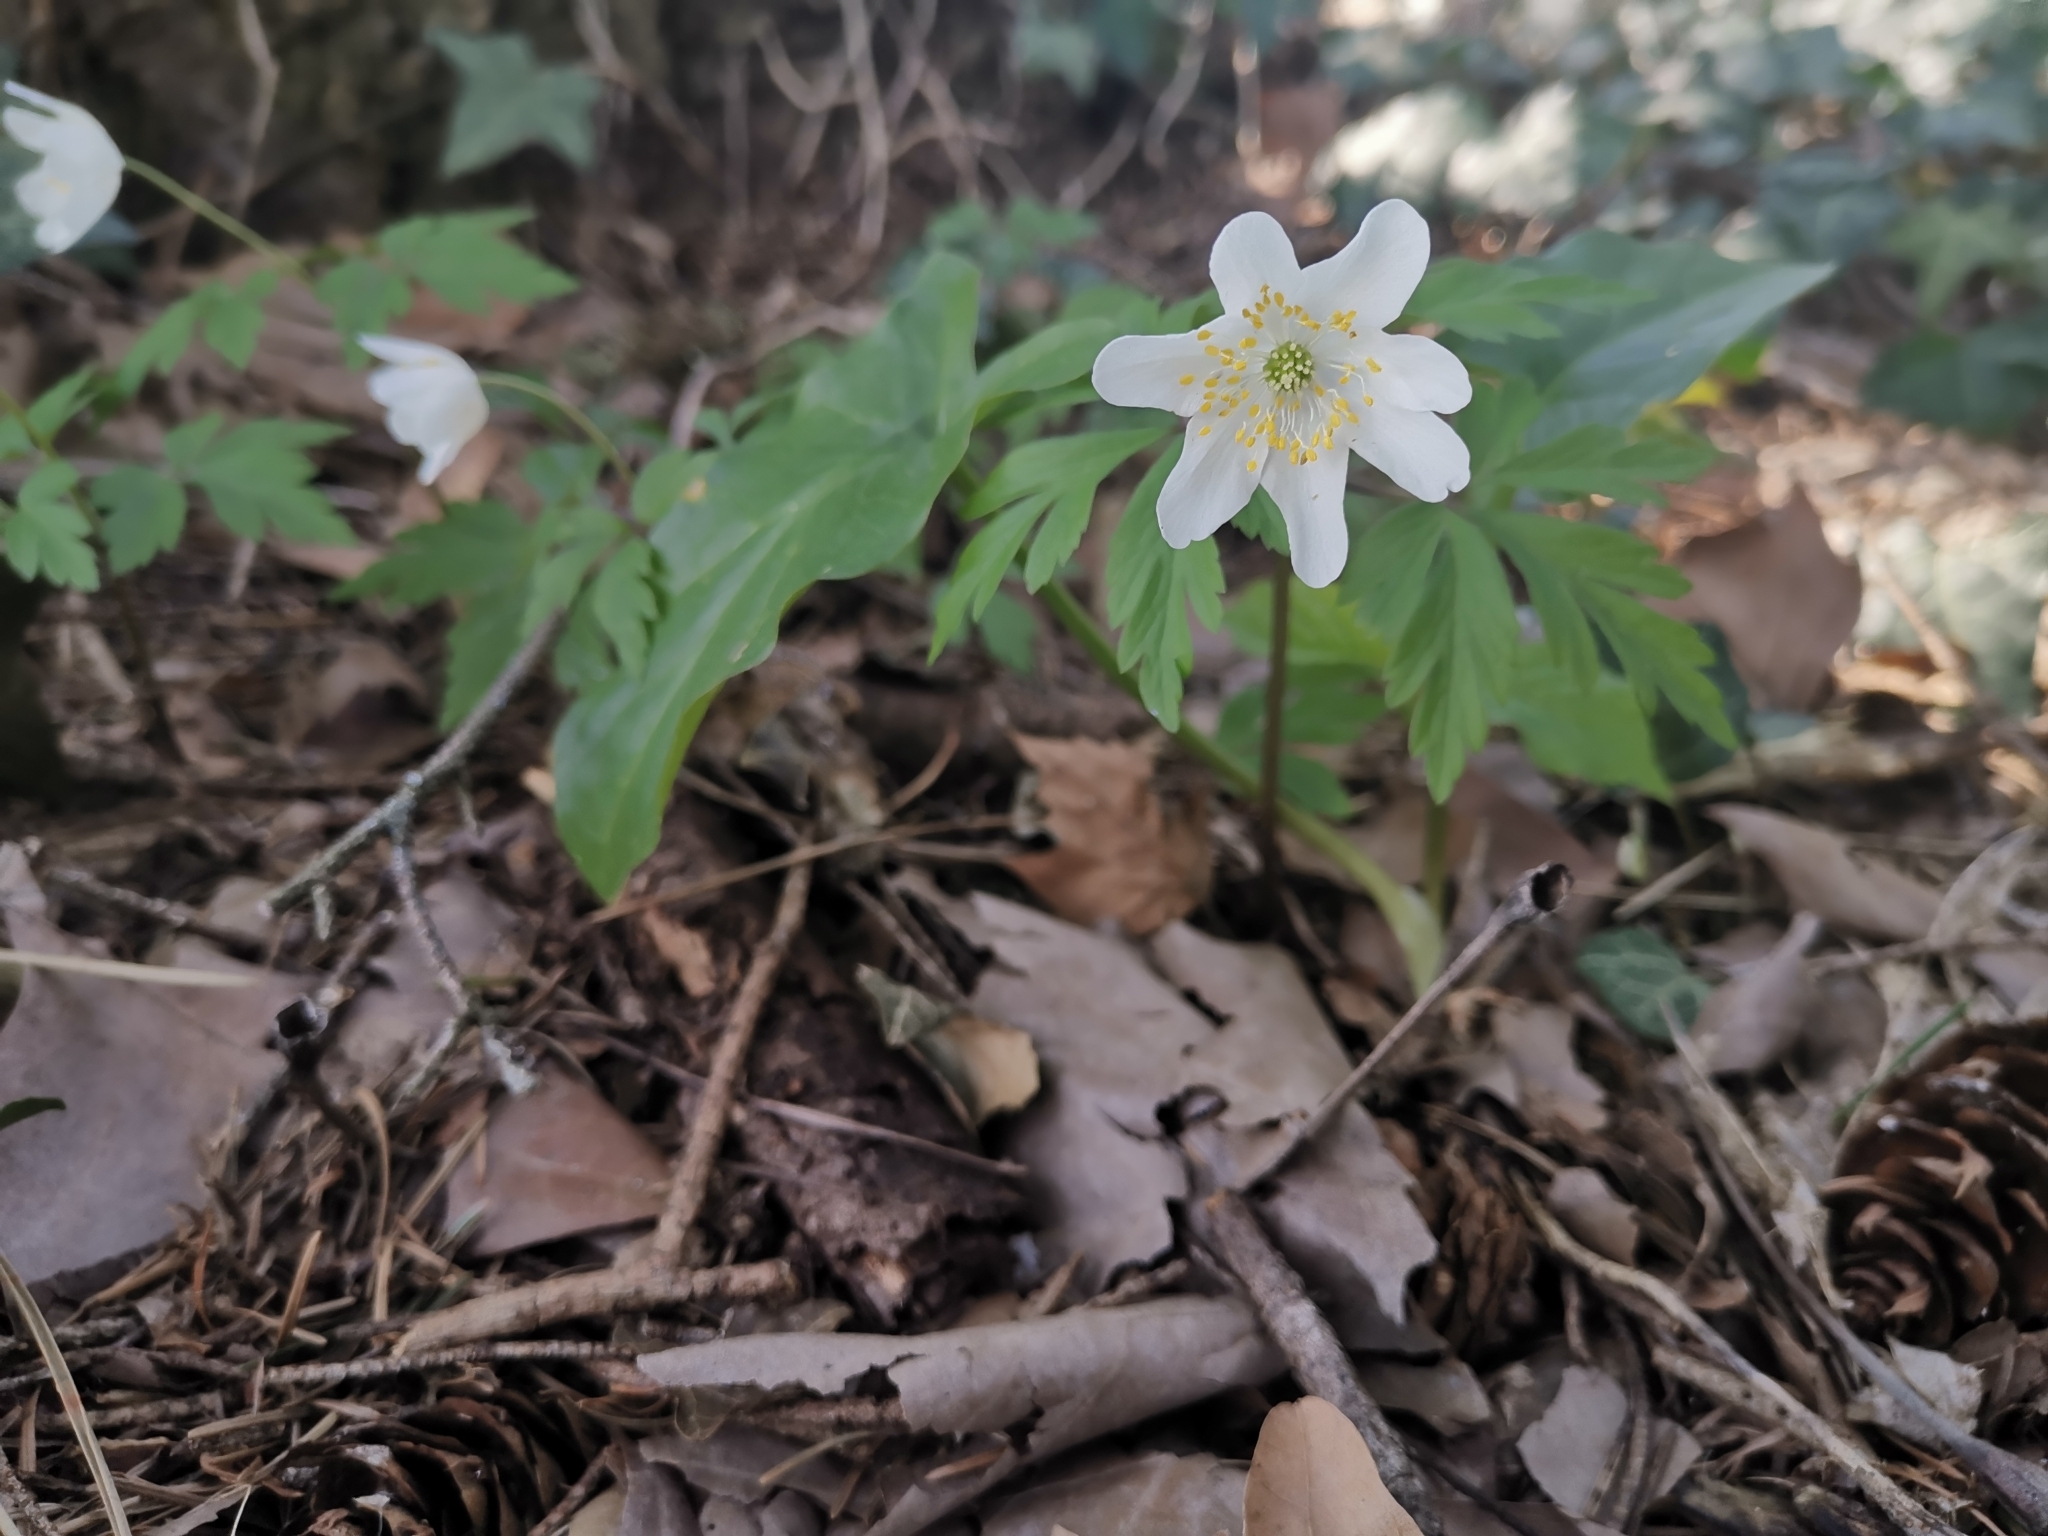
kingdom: Plantae
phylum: Tracheophyta
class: Magnoliopsida
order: Ranunculales
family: Ranunculaceae
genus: Anemone
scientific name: Anemone nemorosa
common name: Wood anemone
